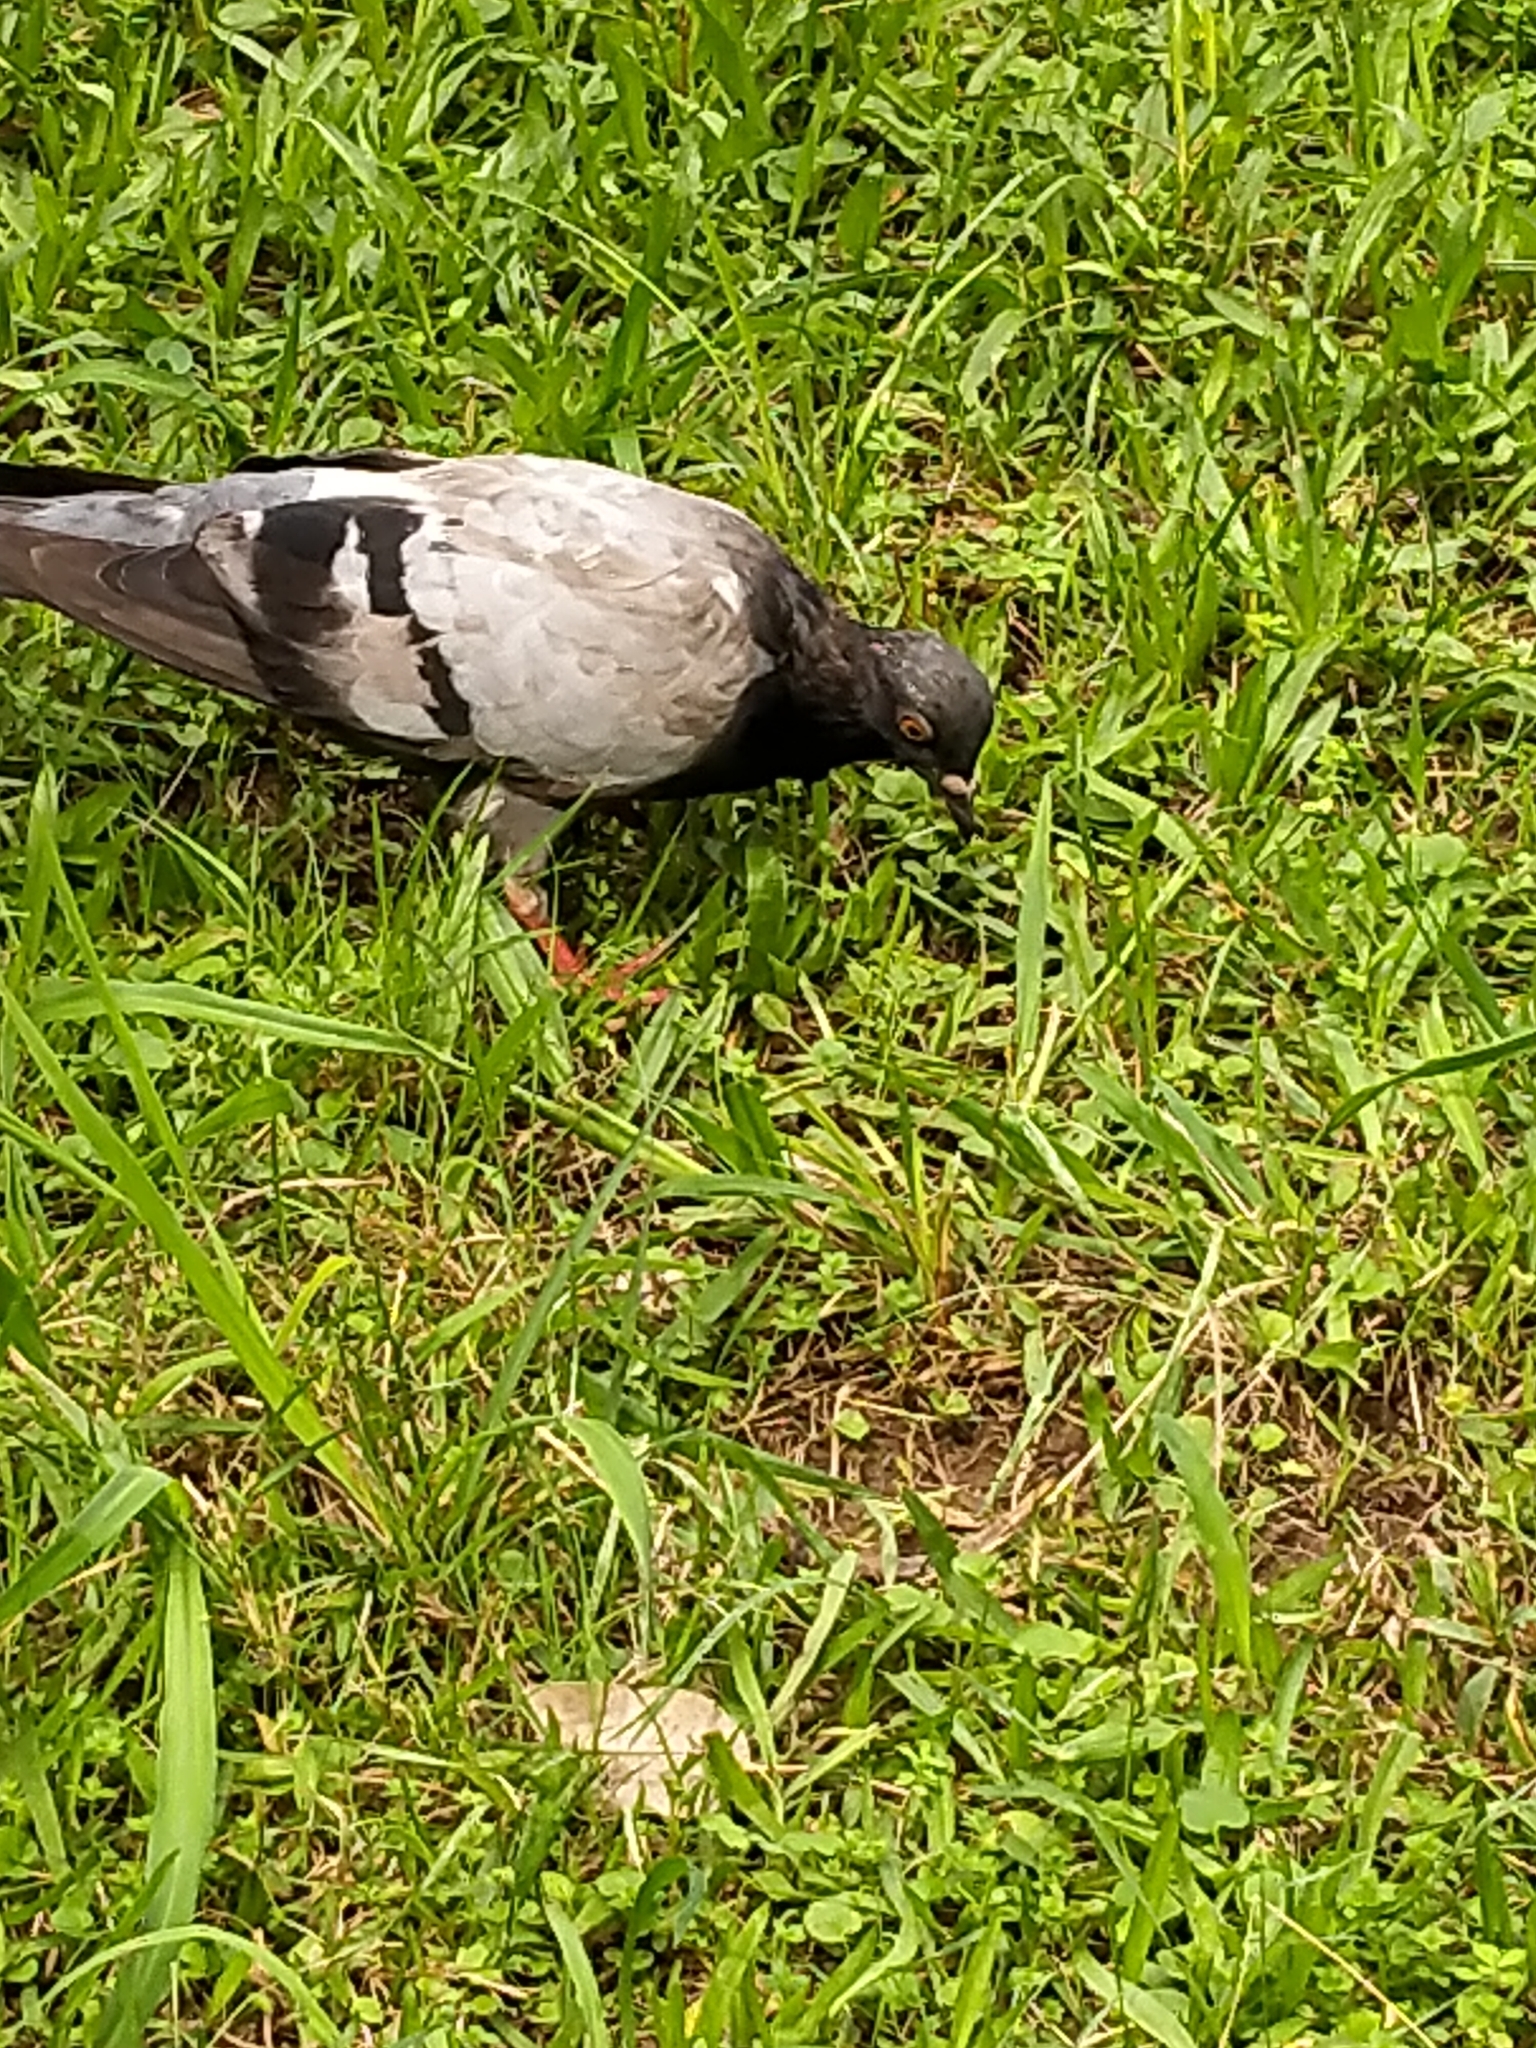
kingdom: Animalia
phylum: Chordata
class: Aves
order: Columbiformes
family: Columbidae
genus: Columba
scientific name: Columba livia
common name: Rock pigeon
